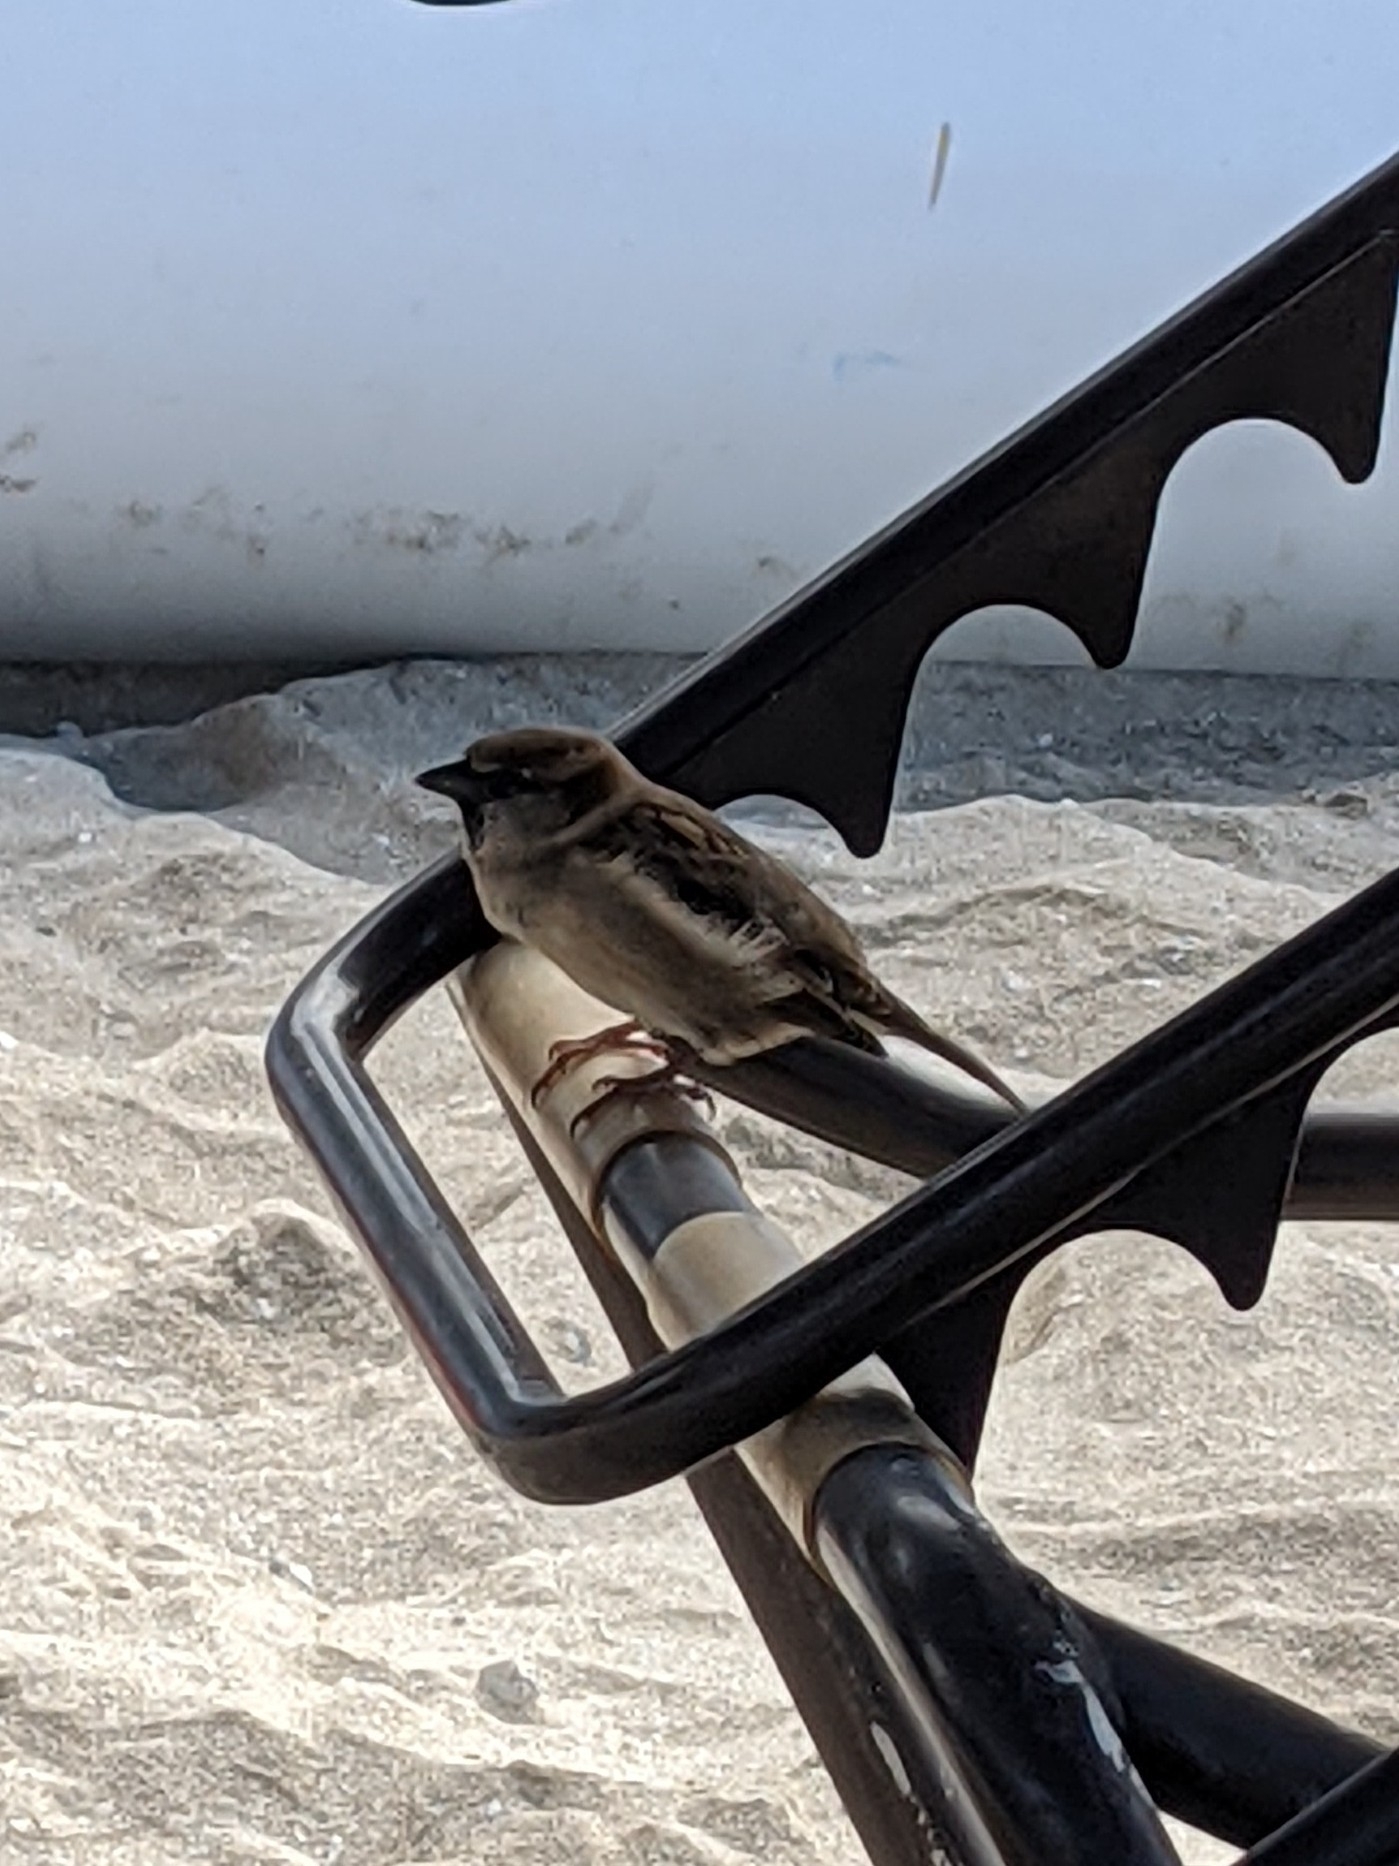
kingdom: Animalia
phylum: Chordata
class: Aves
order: Passeriformes
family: Passeridae
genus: Passer
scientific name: Passer domesticus
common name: House sparrow
